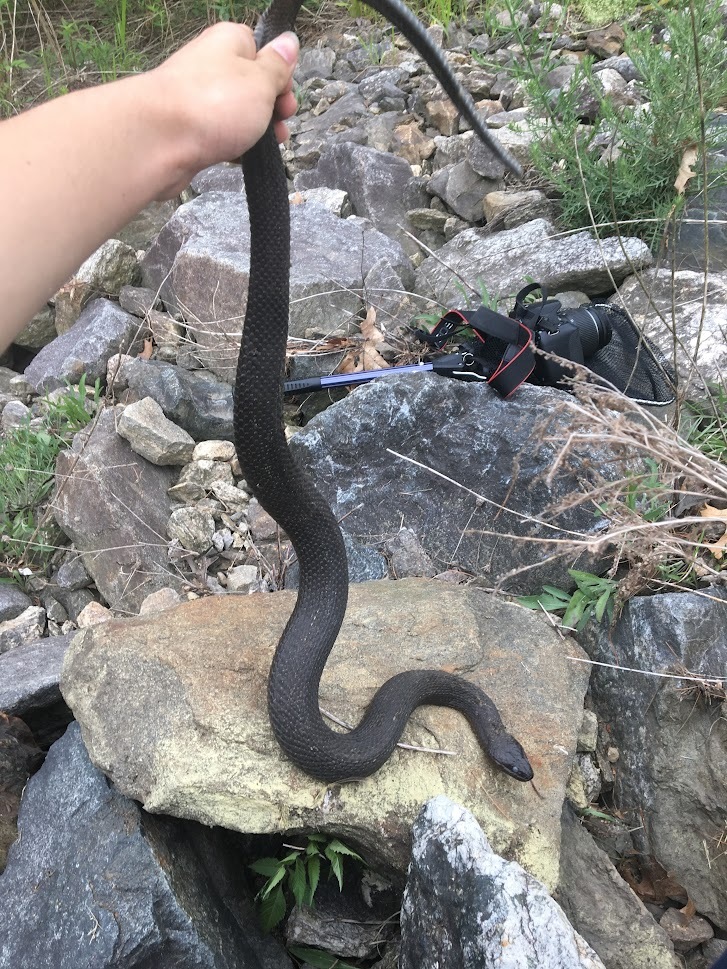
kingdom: Animalia
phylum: Chordata
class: Squamata
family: Colubridae
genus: Nerodia
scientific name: Nerodia sipedon
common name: Northern water snake
